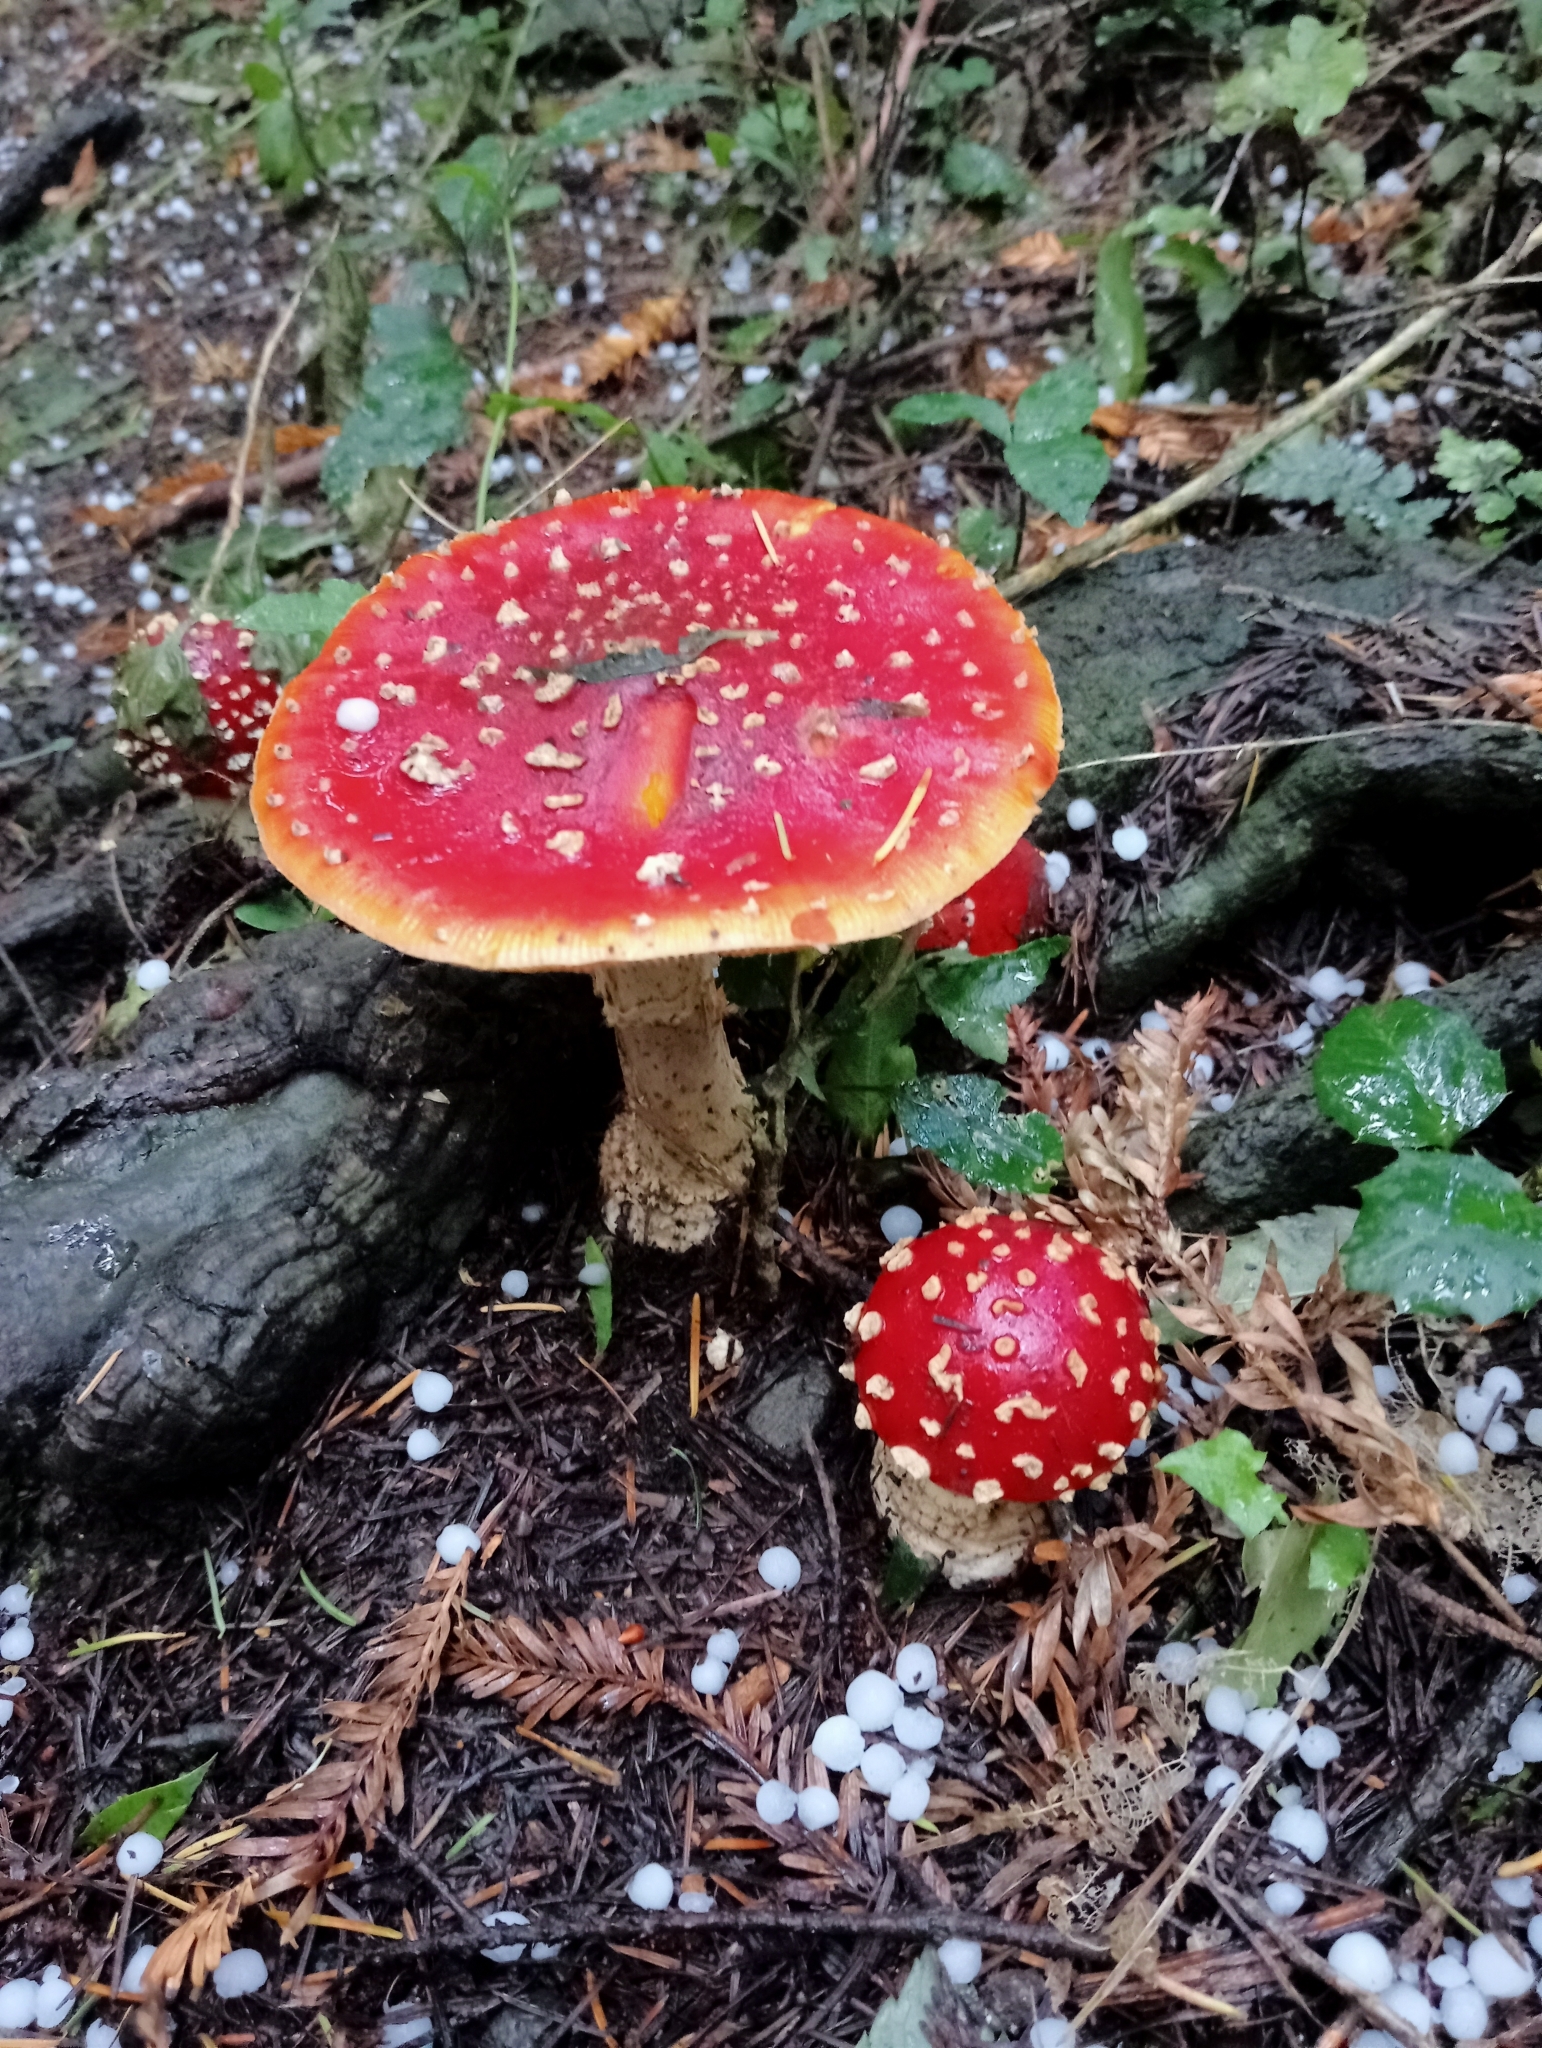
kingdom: Fungi
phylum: Basidiomycota
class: Agaricomycetes
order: Agaricales
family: Amanitaceae
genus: Amanita
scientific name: Amanita muscaria
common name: Fly agaric
